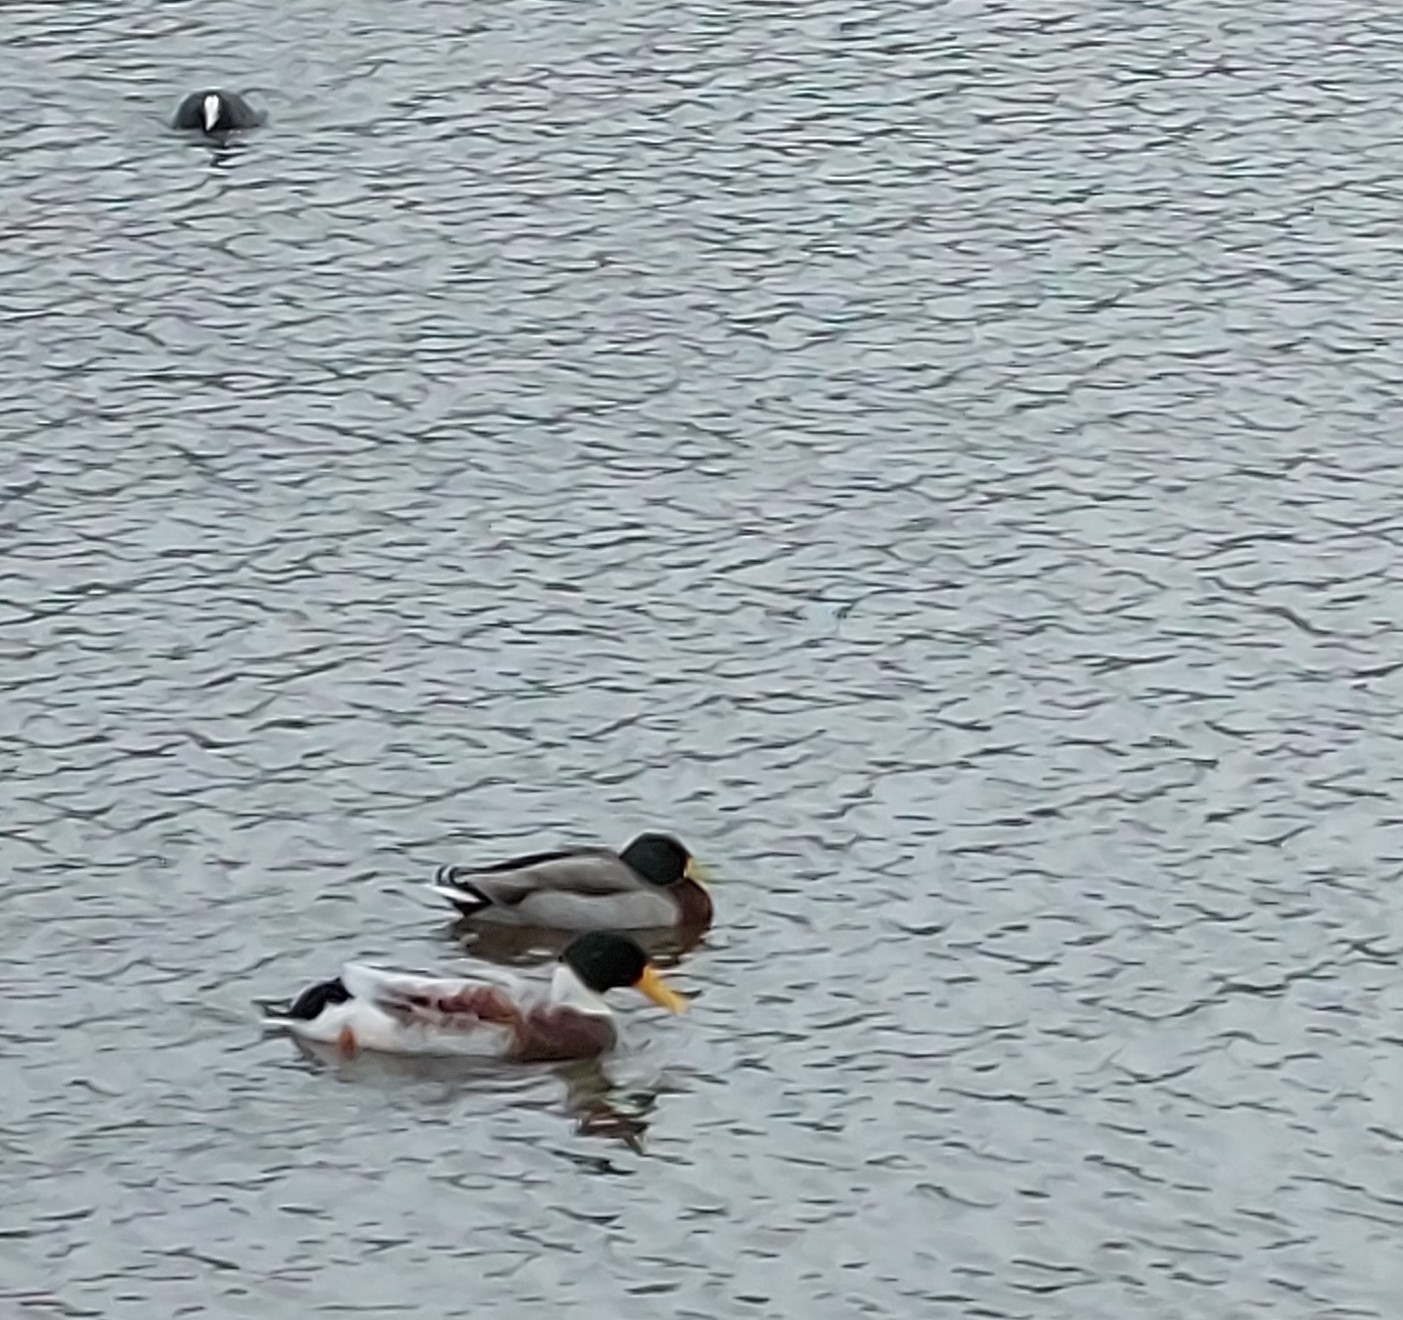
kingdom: Animalia
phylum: Chordata
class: Aves
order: Anseriformes
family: Anatidae
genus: Anas
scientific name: Anas platyrhynchos
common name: Mallard
